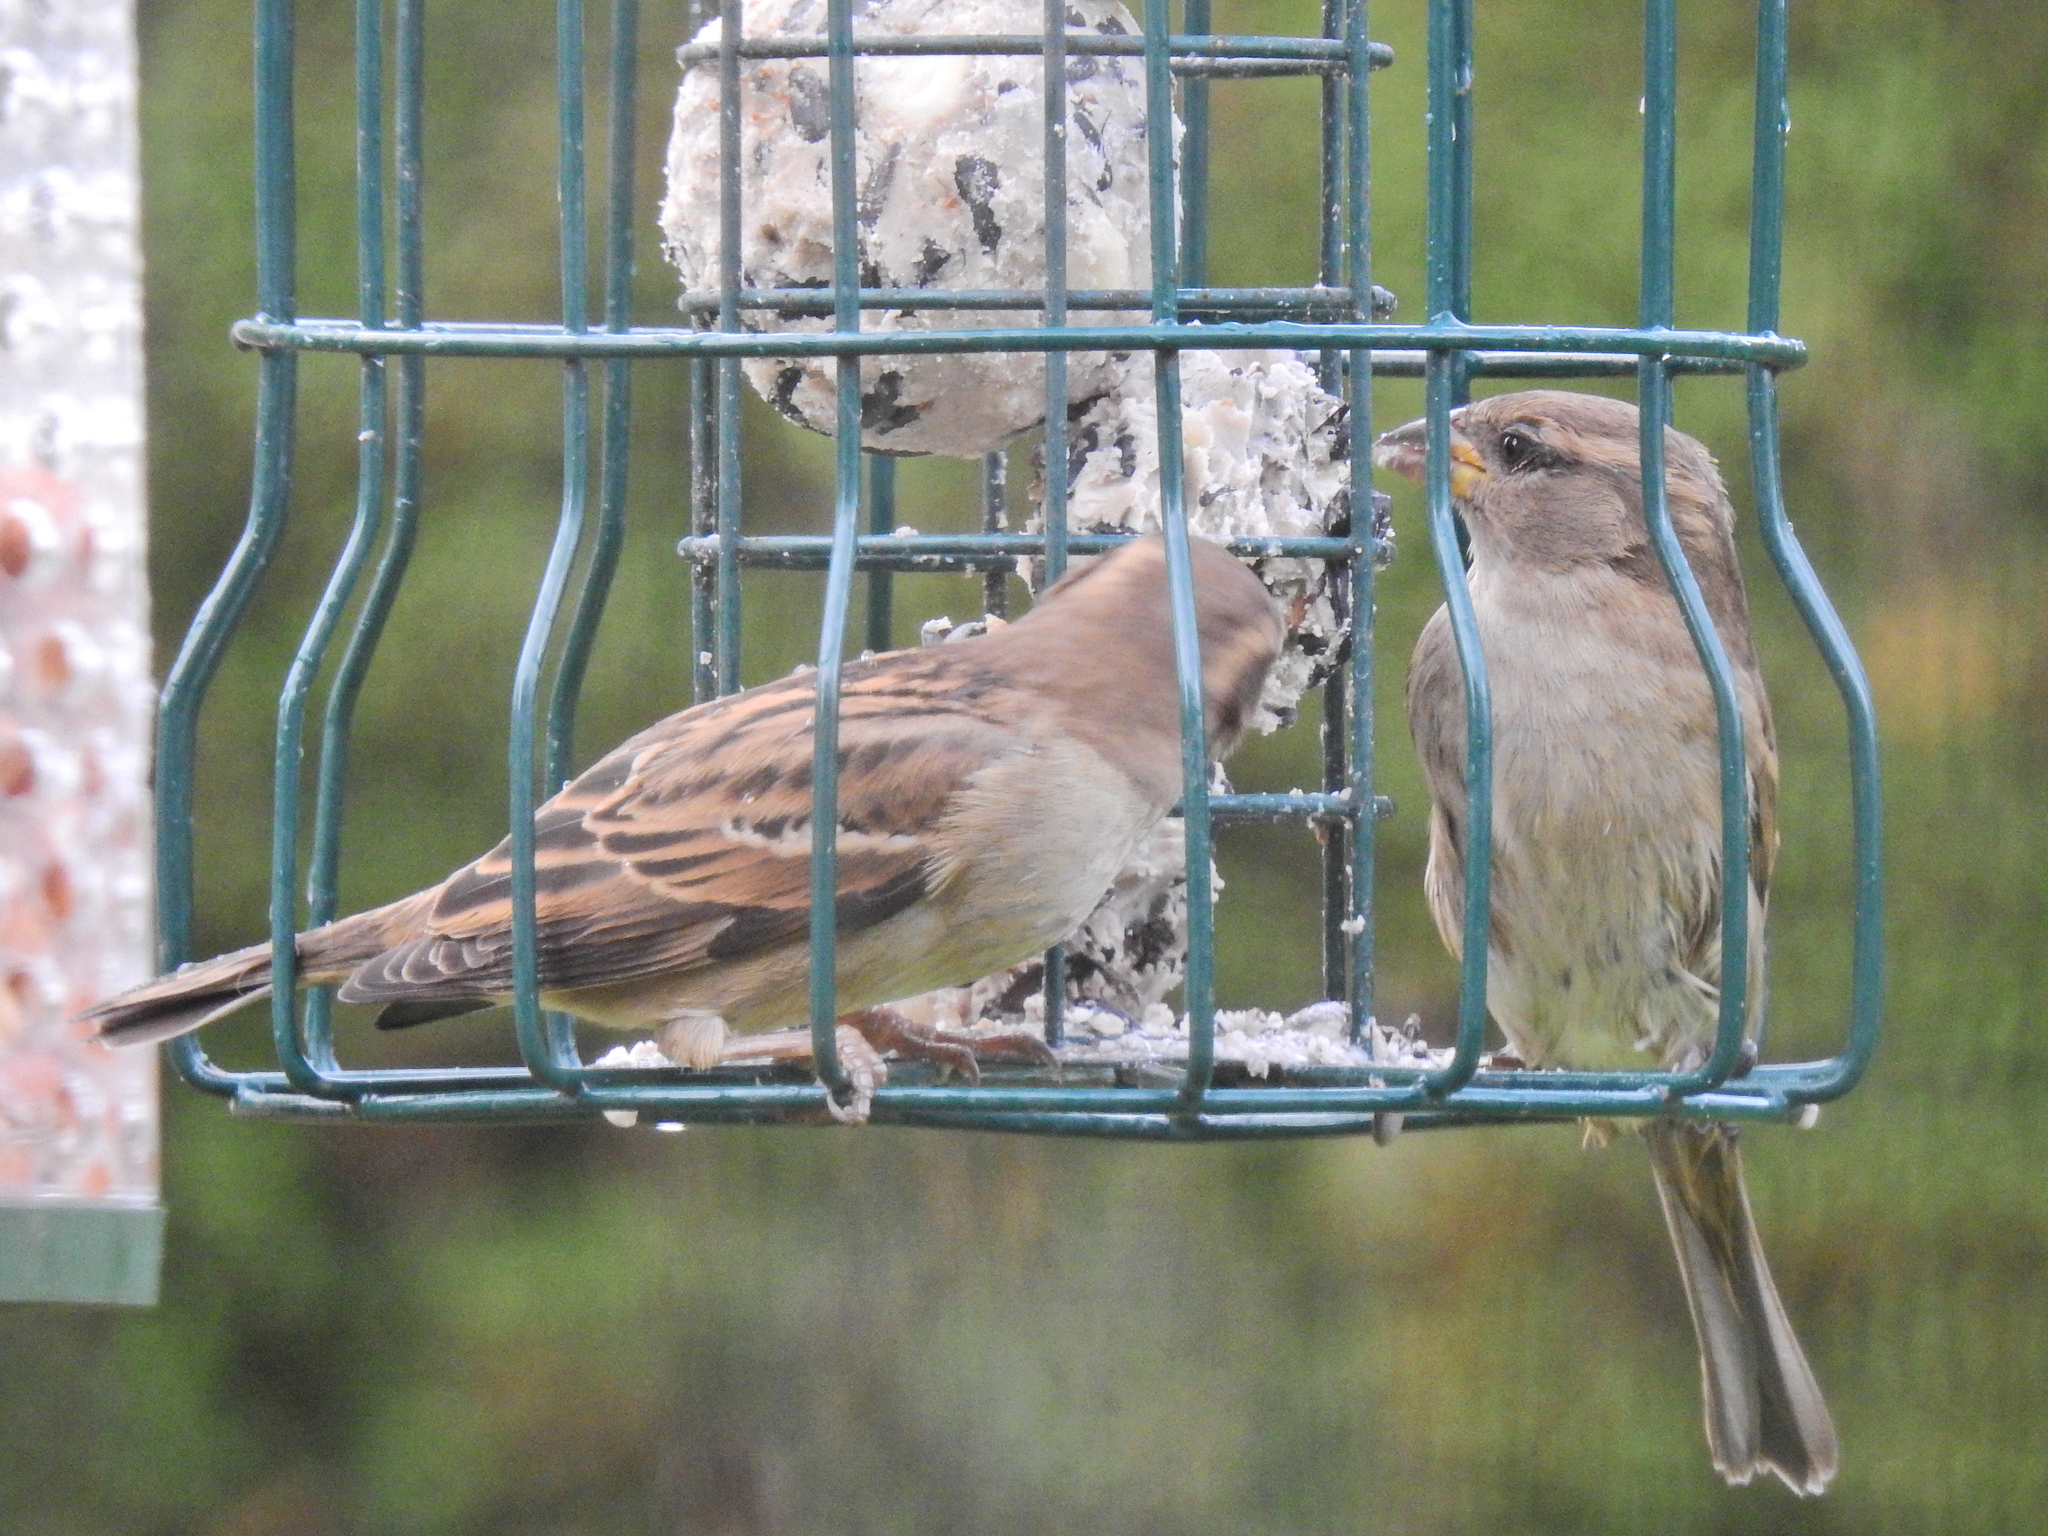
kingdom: Animalia
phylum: Chordata
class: Aves
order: Passeriformes
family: Passeridae
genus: Passer
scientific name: Passer domesticus
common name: House sparrow
